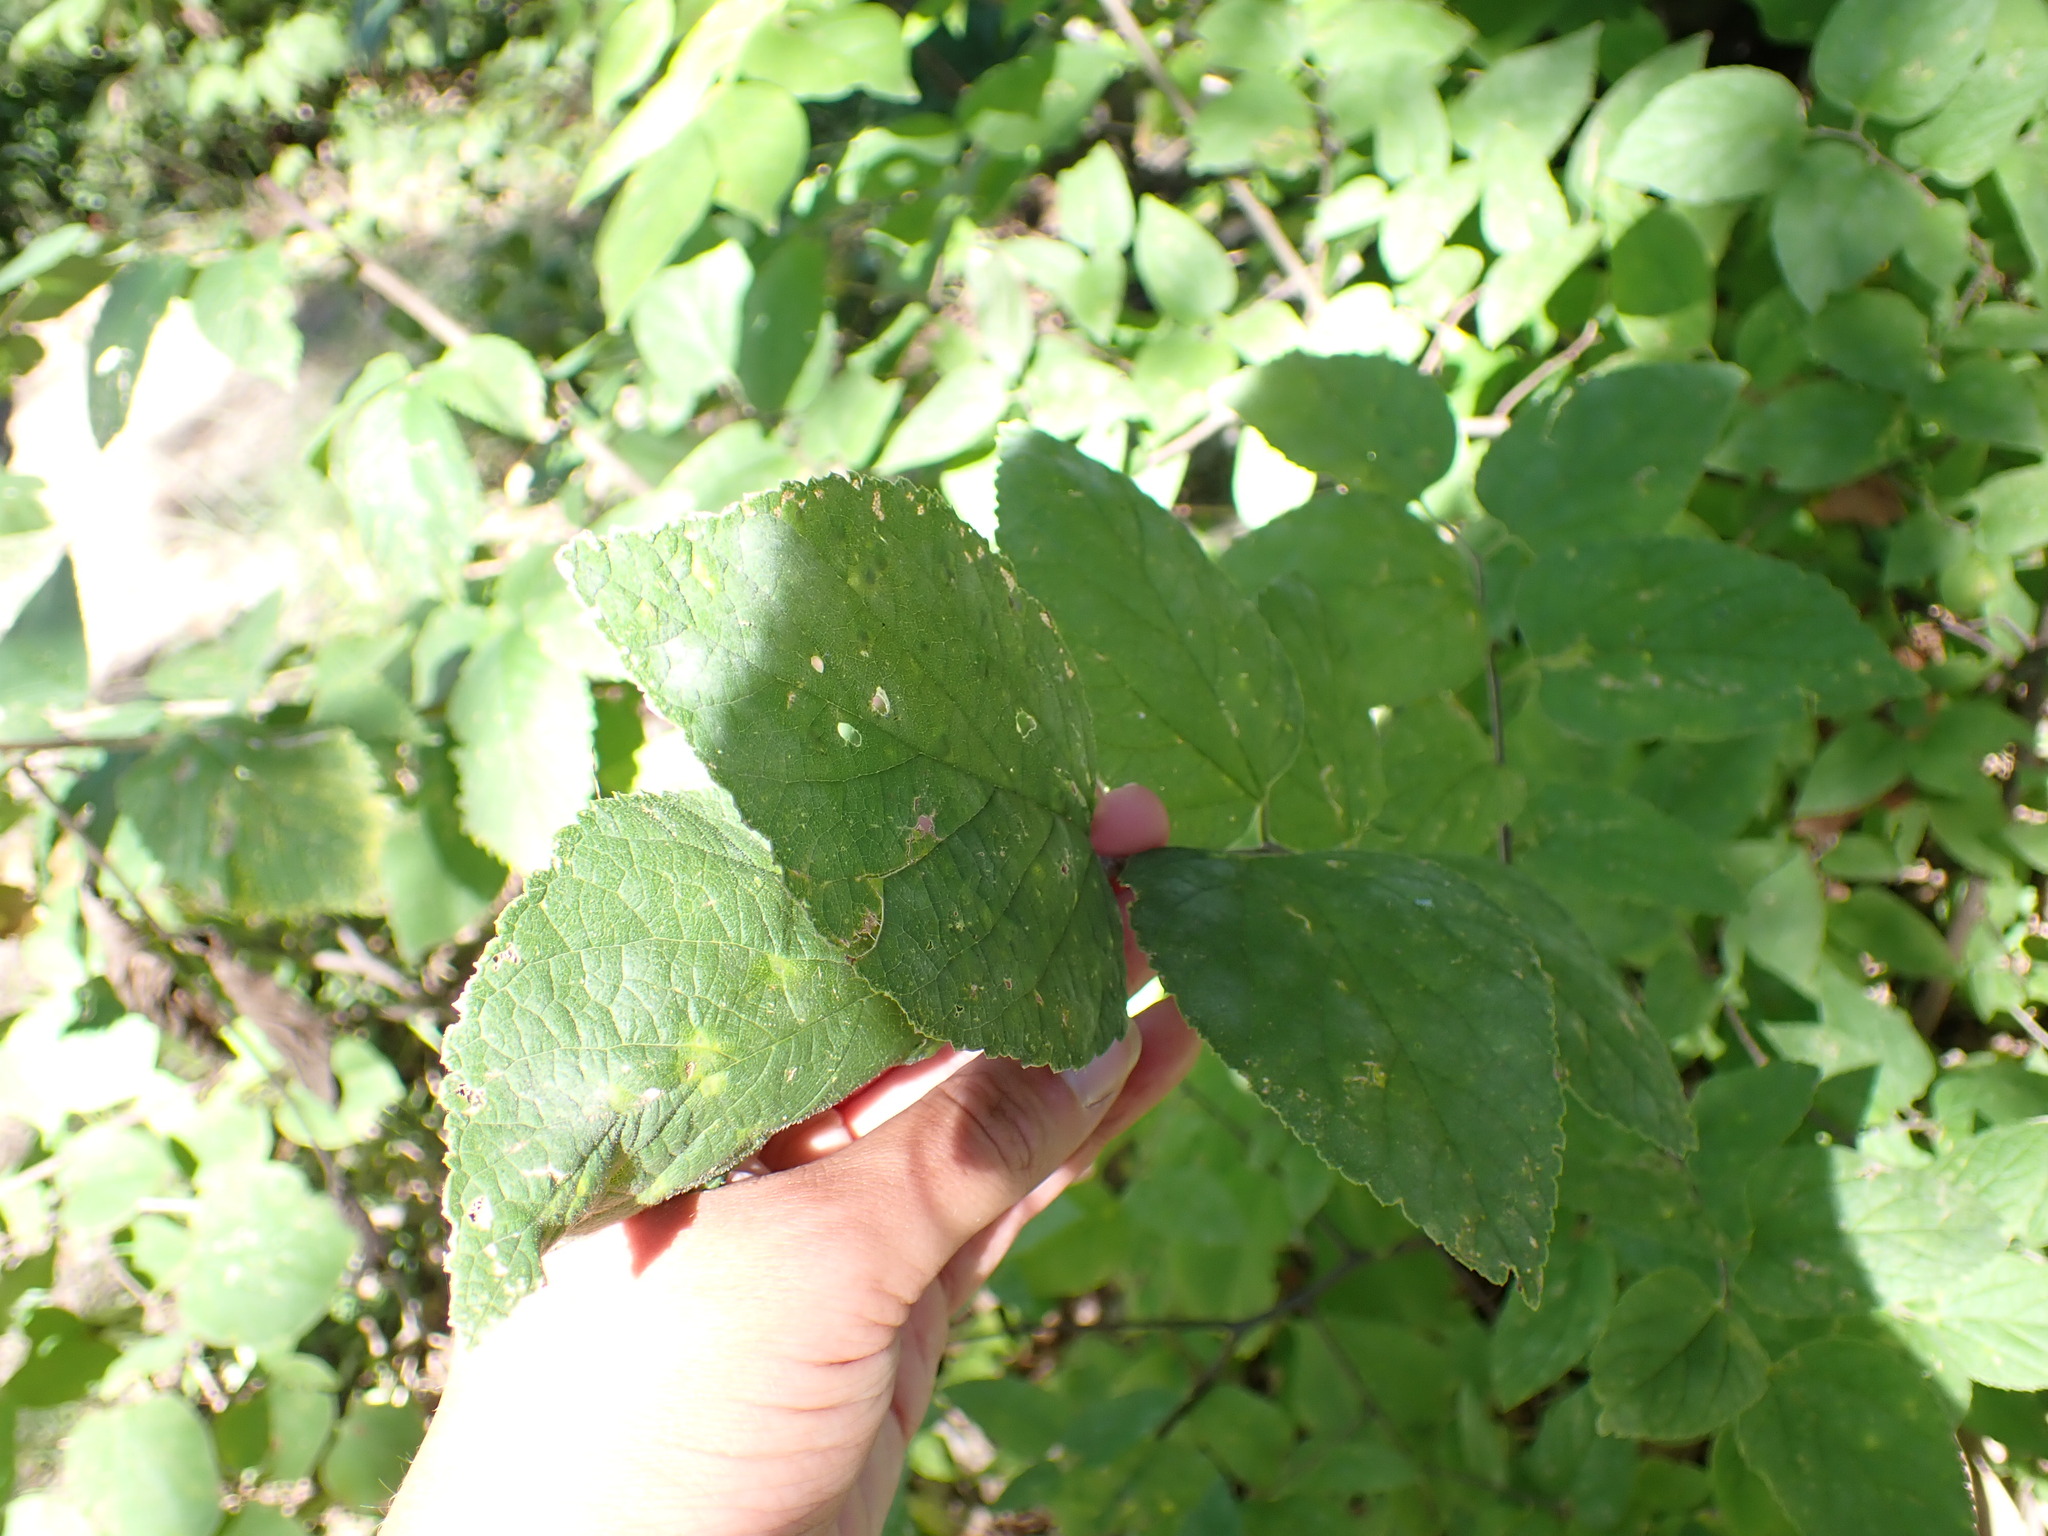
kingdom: Plantae
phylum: Tracheophyta
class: Magnoliopsida
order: Rosales
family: Cannabaceae
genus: Celtis
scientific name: Celtis occidentalis
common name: Common hackberry
